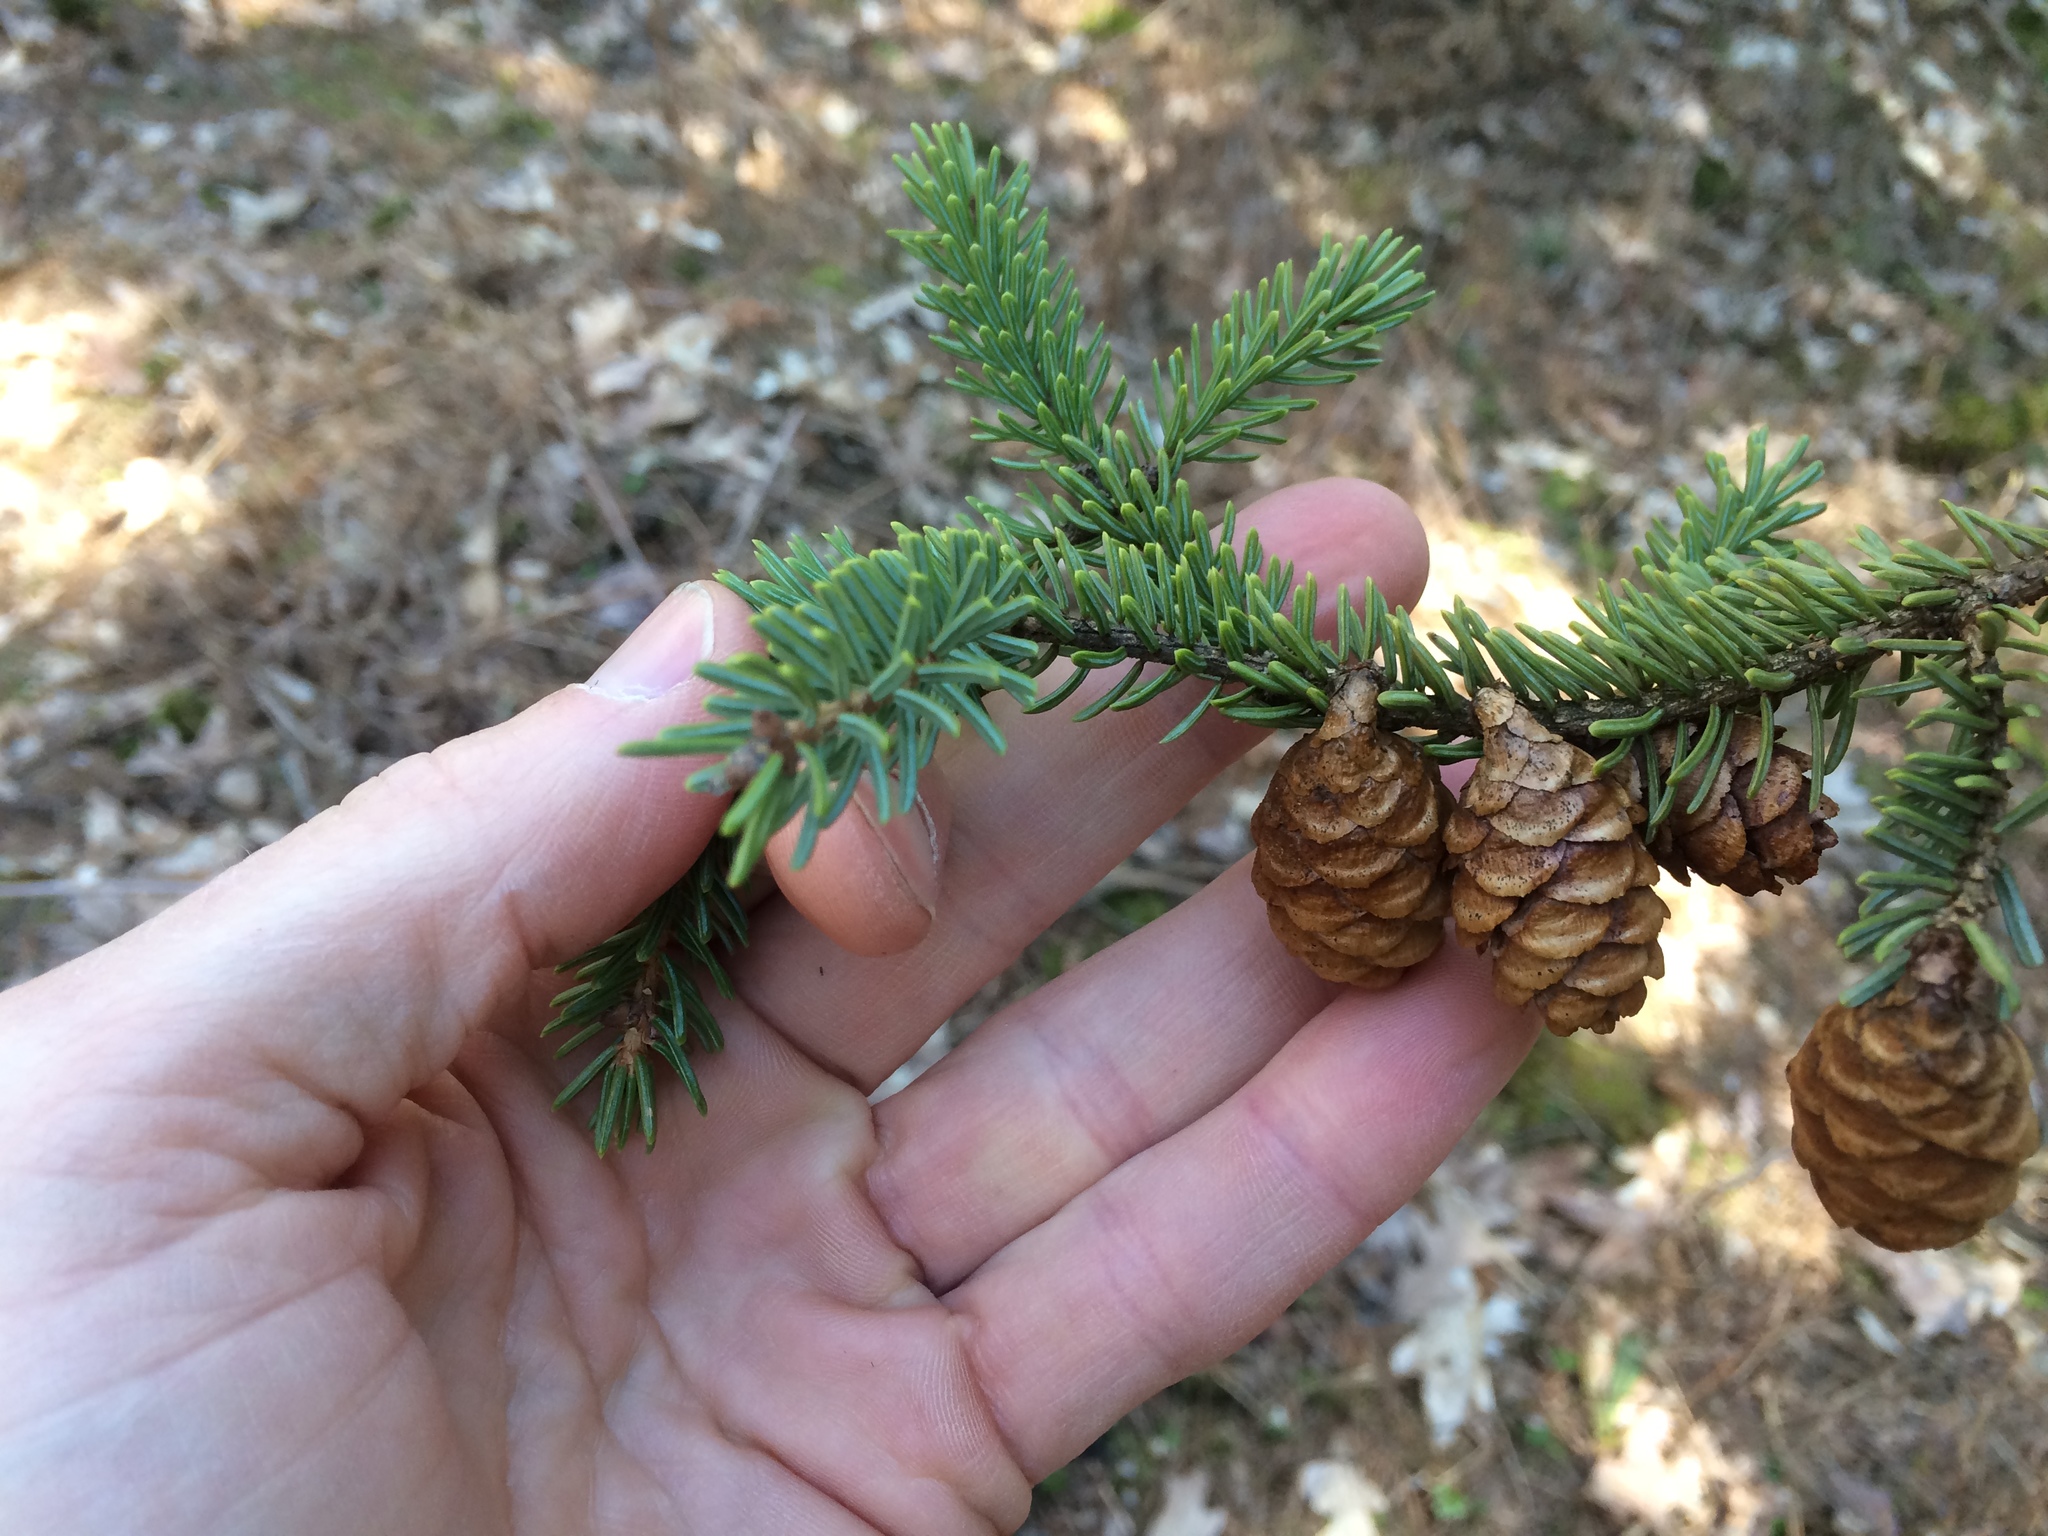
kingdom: Plantae
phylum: Tracheophyta
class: Pinopsida
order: Pinales
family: Pinaceae
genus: Picea
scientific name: Picea mariana
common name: Black spruce
